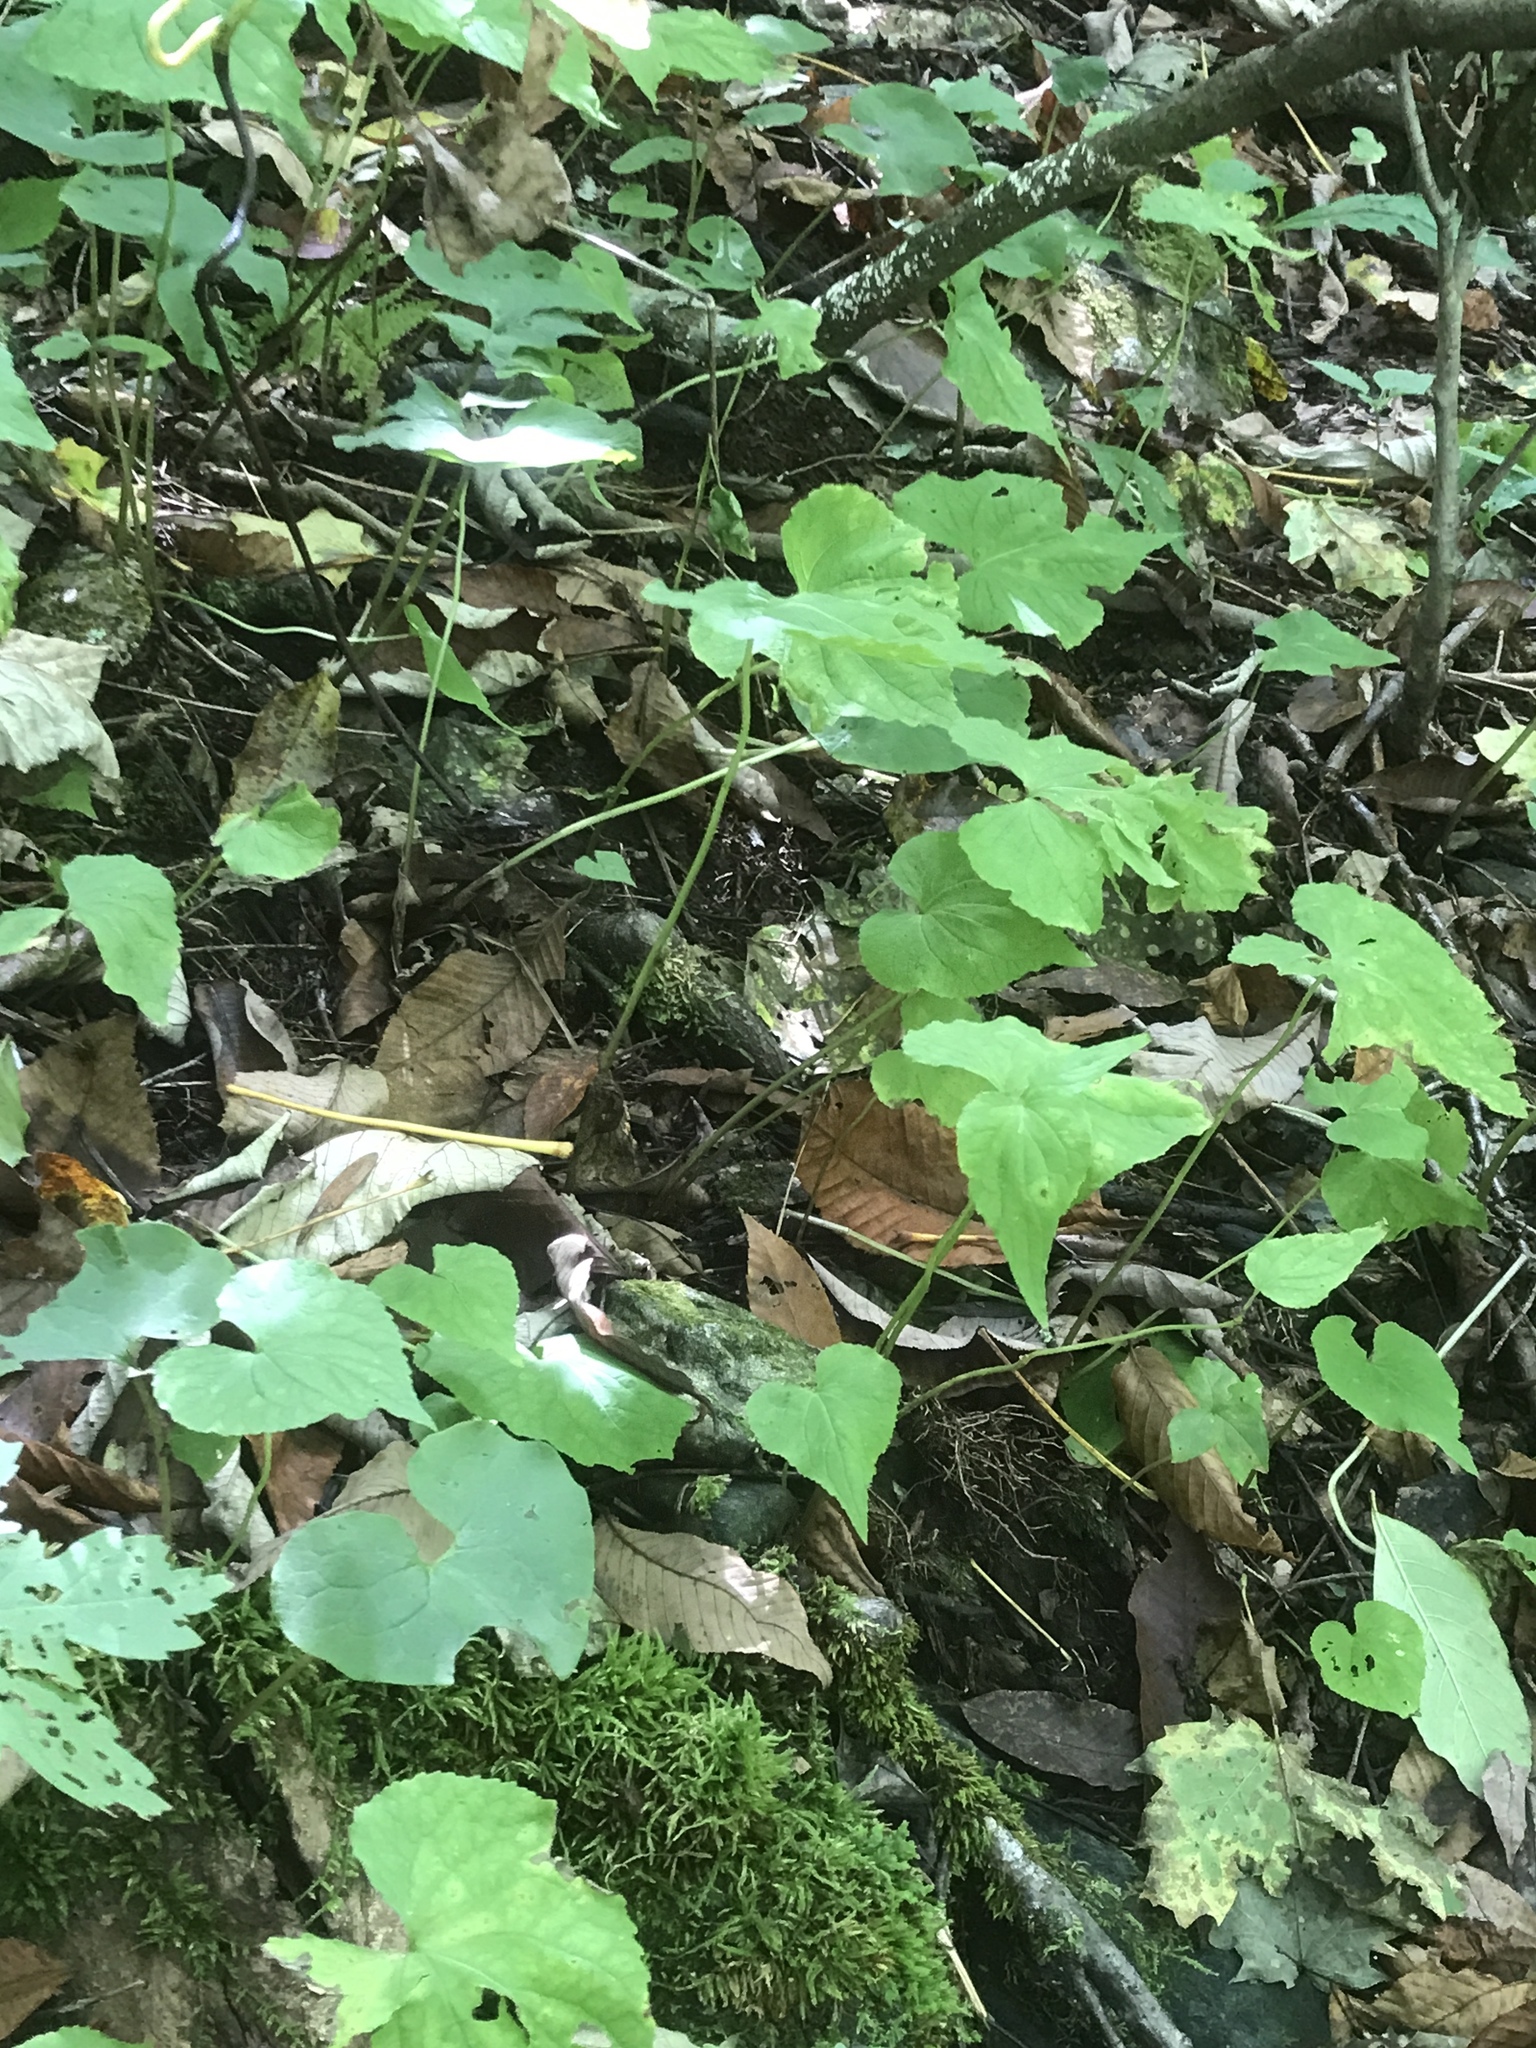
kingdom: Plantae
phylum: Tracheophyta
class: Magnoliopsida
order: Malpighiales
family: Violaceae
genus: Viola
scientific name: Viola canadensis
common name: Canada violet
